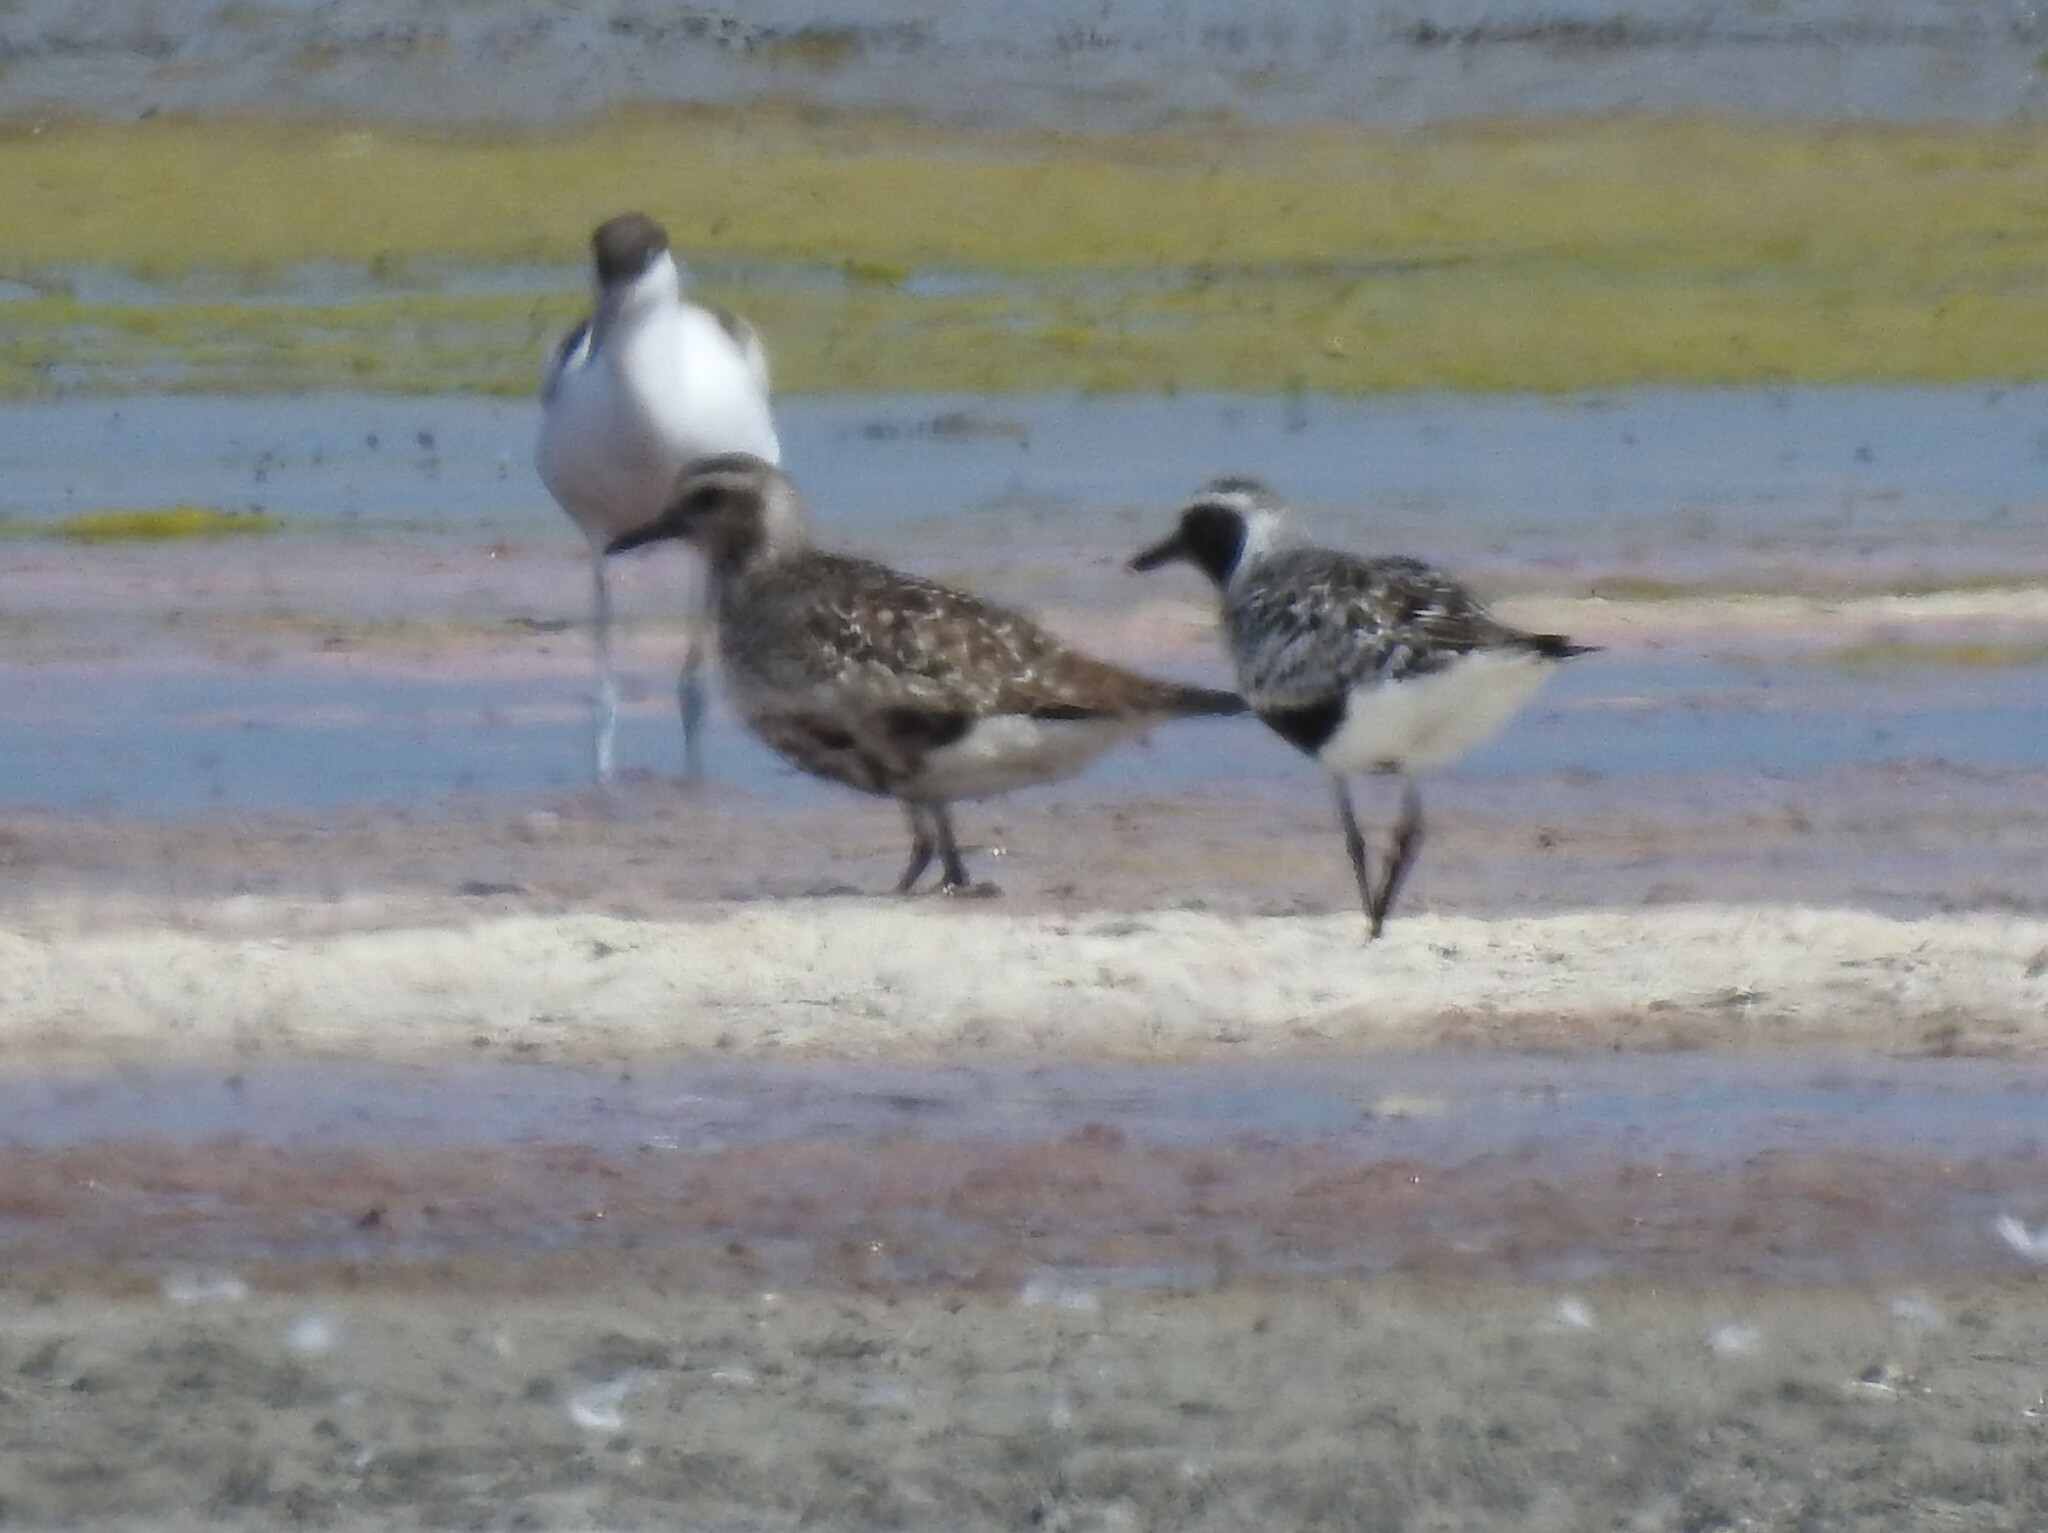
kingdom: Animalia
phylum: Chordata
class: Aves
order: Charadriiformes
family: Charadriidae
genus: Pluvialis
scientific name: Pluvialis squatarola
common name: Grey plover
